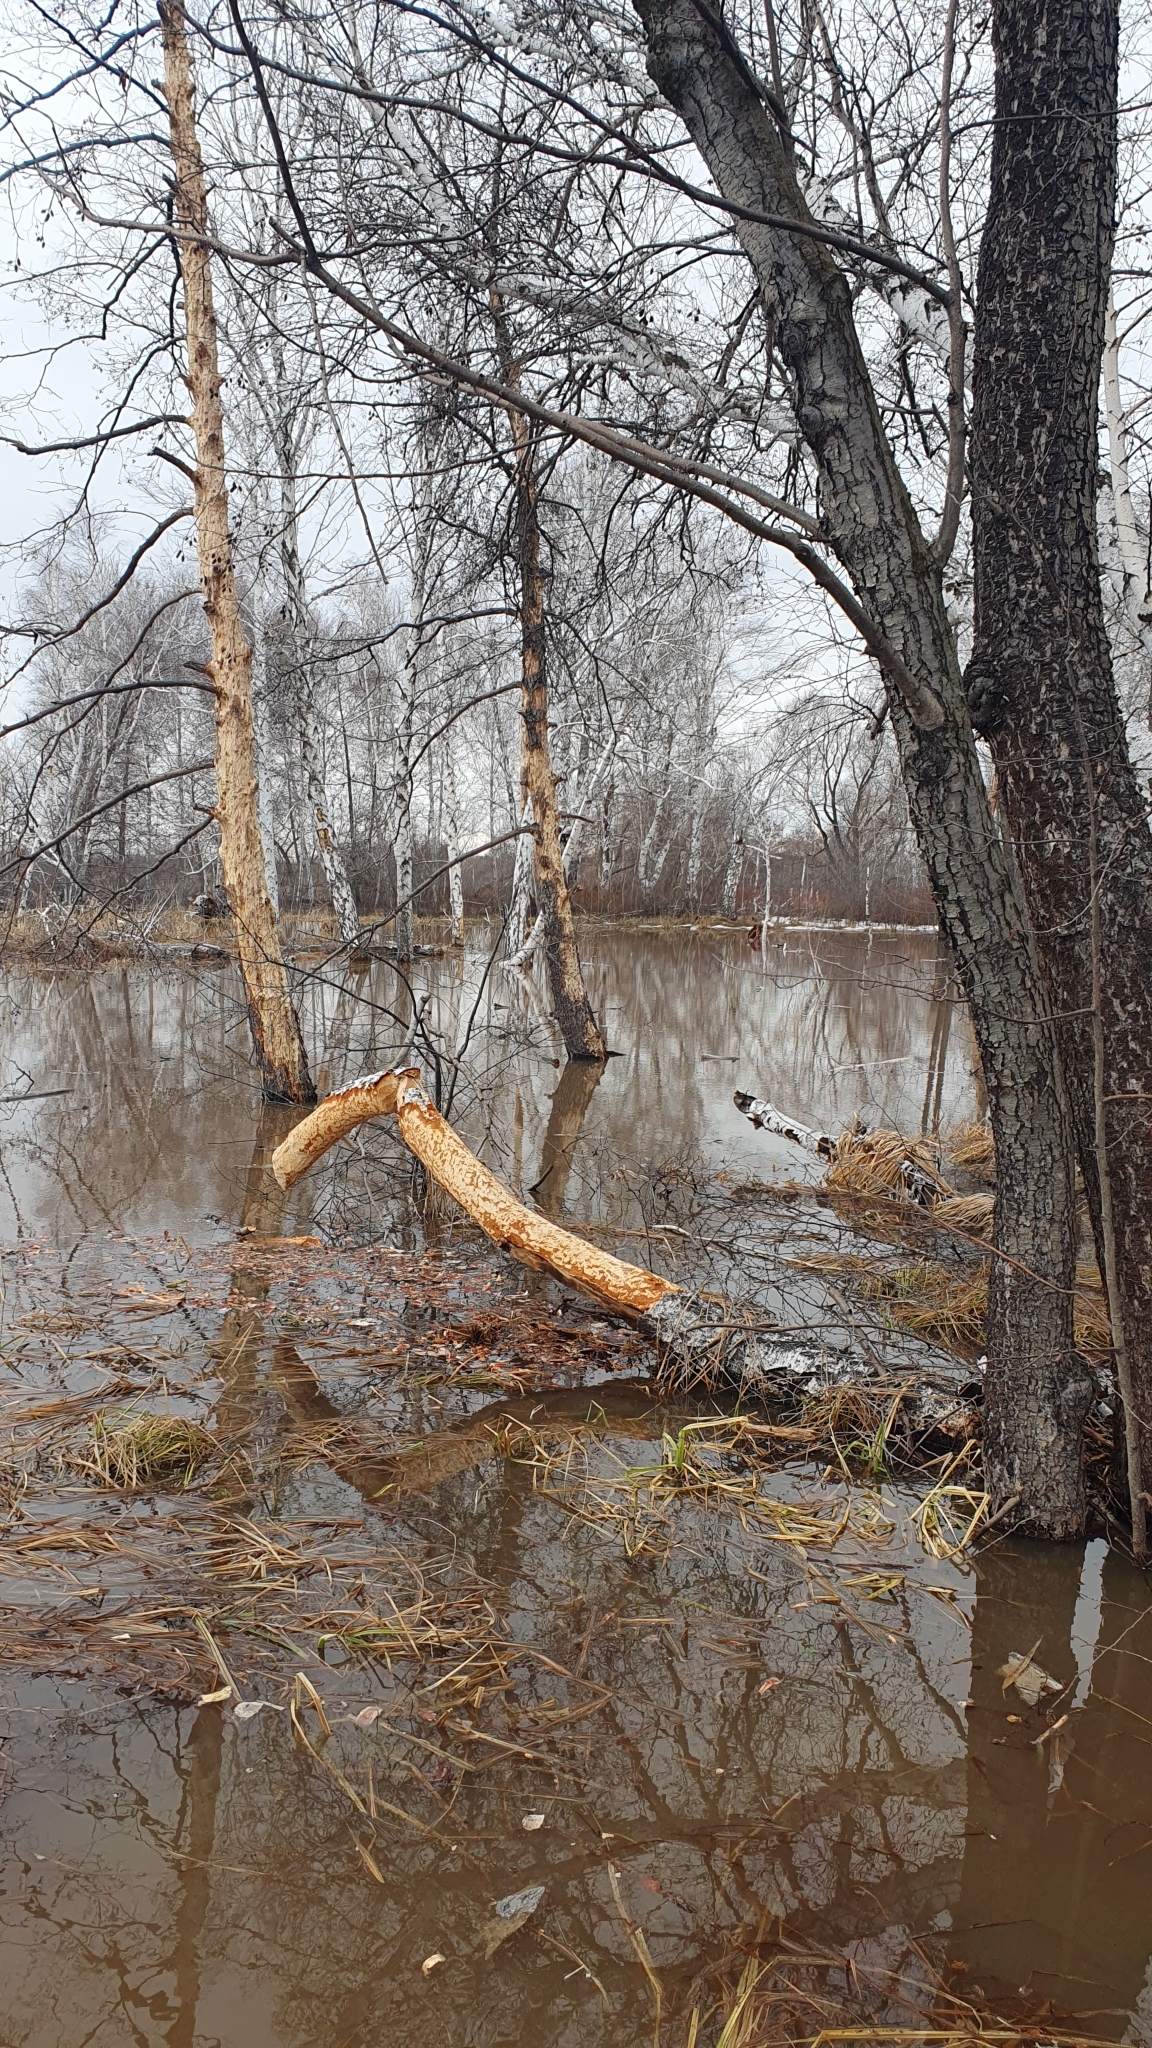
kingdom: Animalia
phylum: Chordata
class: Mammalia
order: Rodentia
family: Castoridae
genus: Castor
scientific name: Castor fiber
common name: Eurasian beaver
